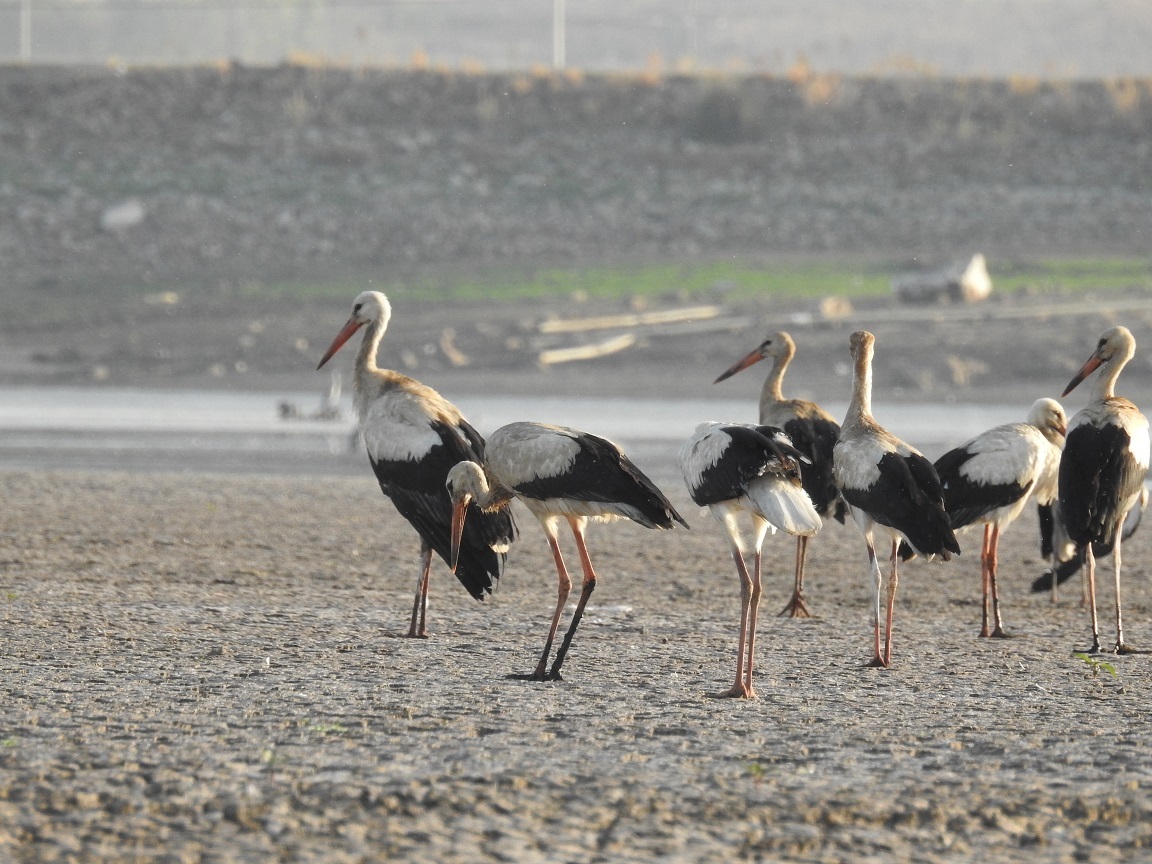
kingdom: Animalia
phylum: Chordata
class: Aves
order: Ciconiiformes
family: Ciconiidae
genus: Ciconia
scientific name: Ciconia ciconia
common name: White stork
